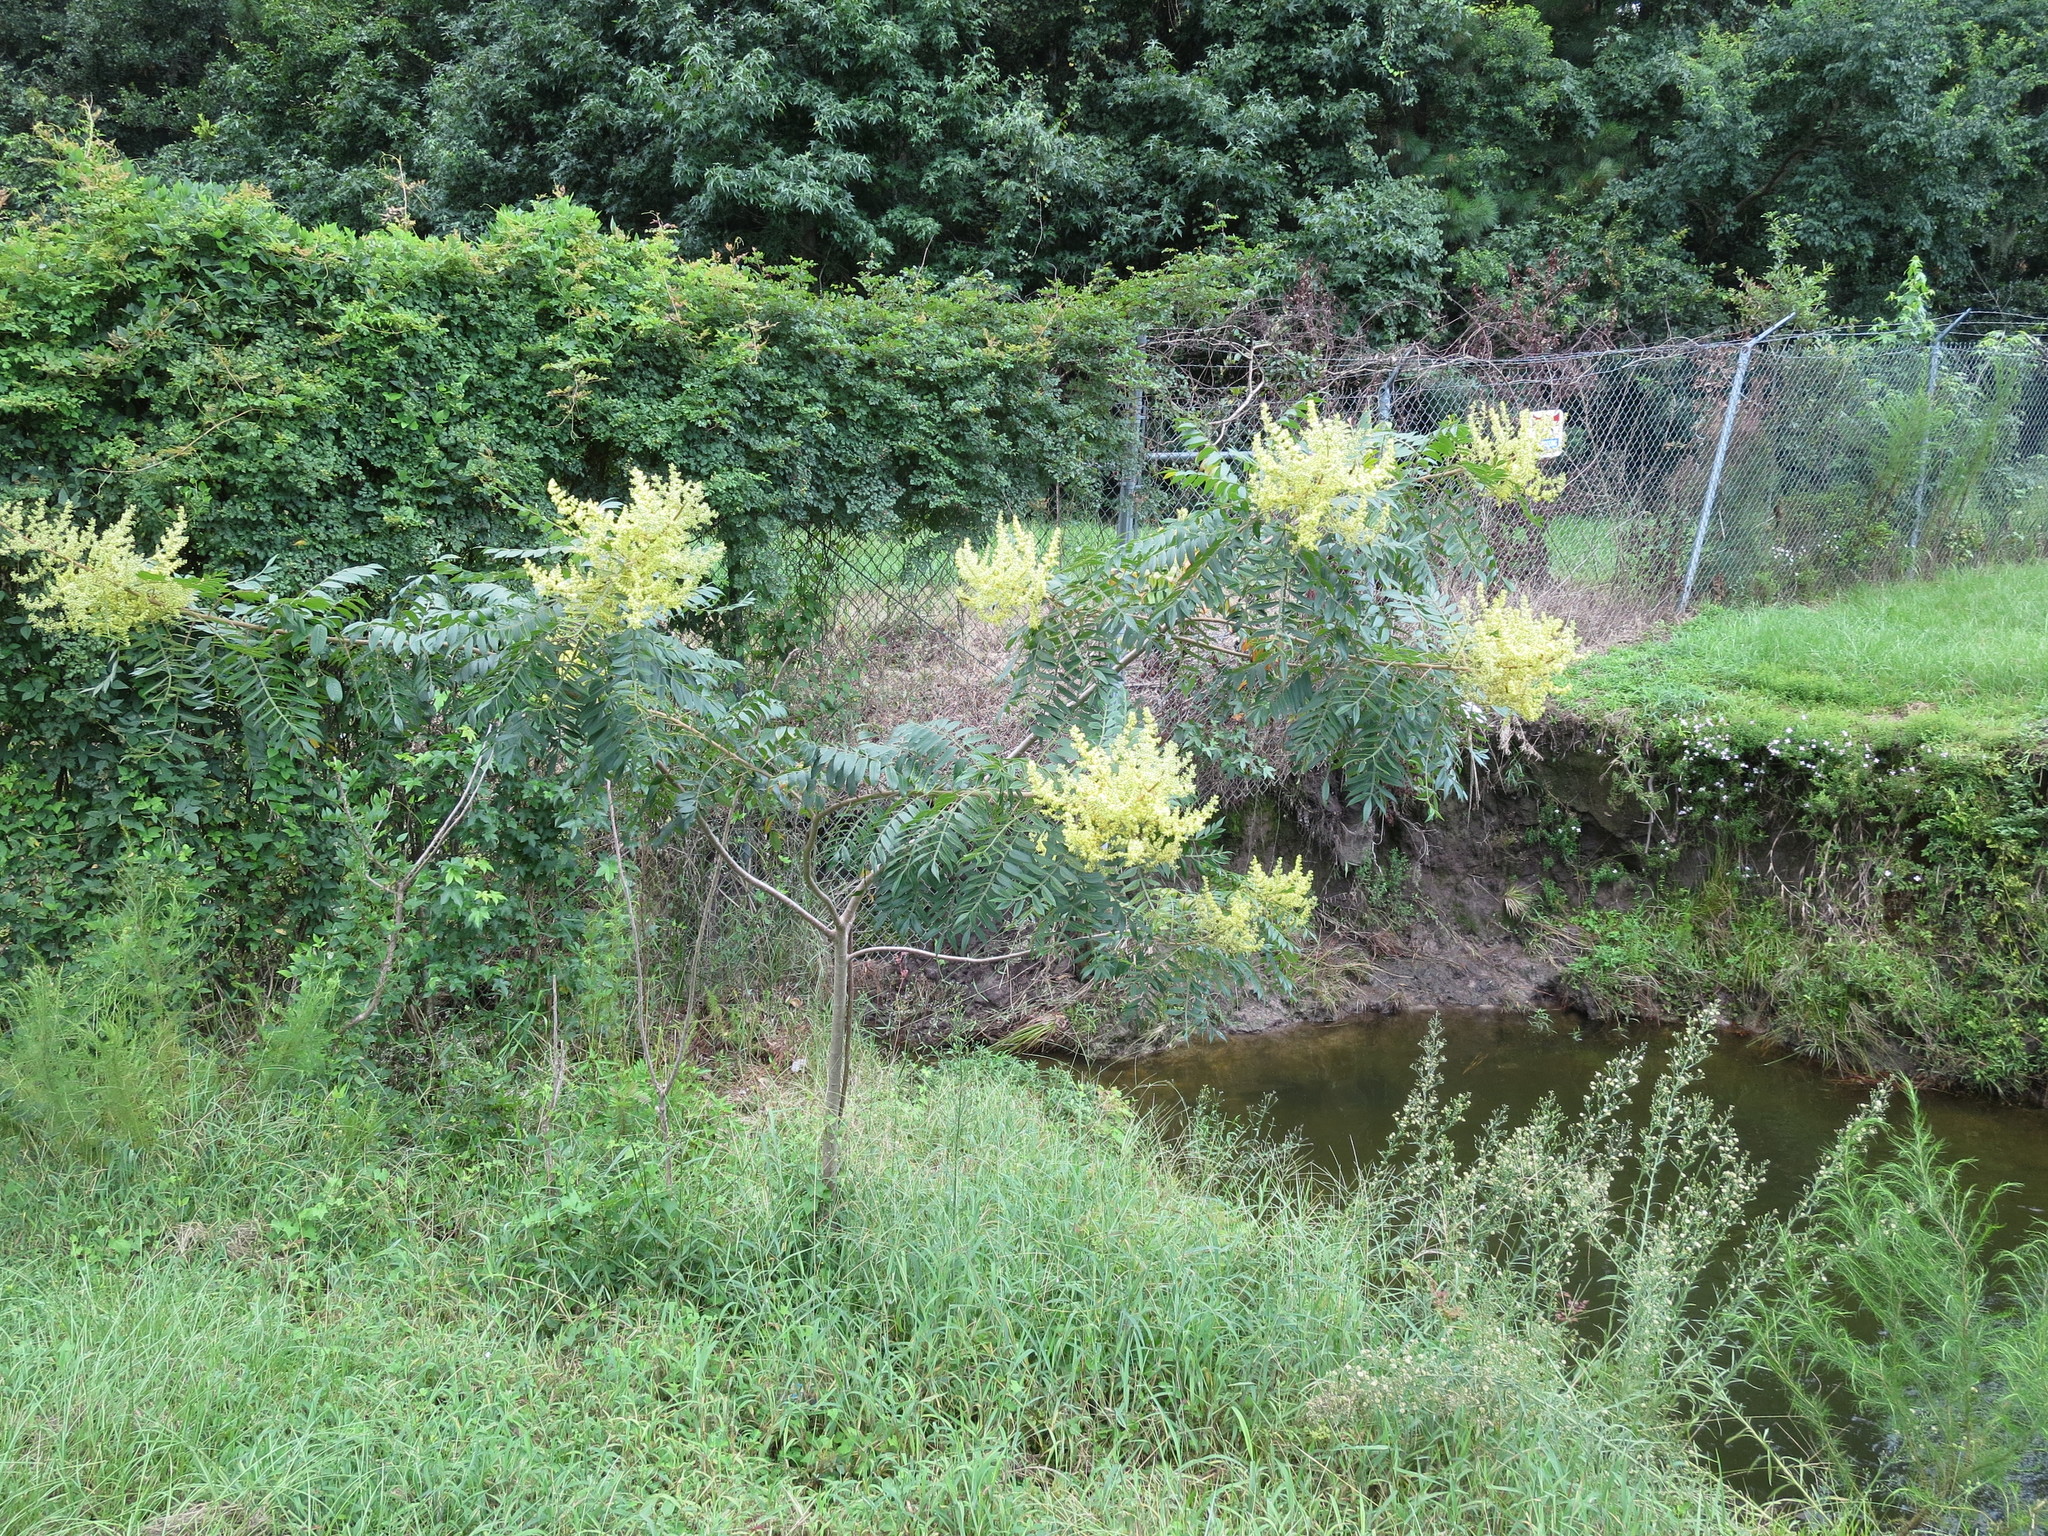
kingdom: Plantae
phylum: Tracheophyta
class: Magnoliopsida
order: Sapindales
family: Anacardiaceae
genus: Rhus
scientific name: Rhus copallina
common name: Shining sumac
